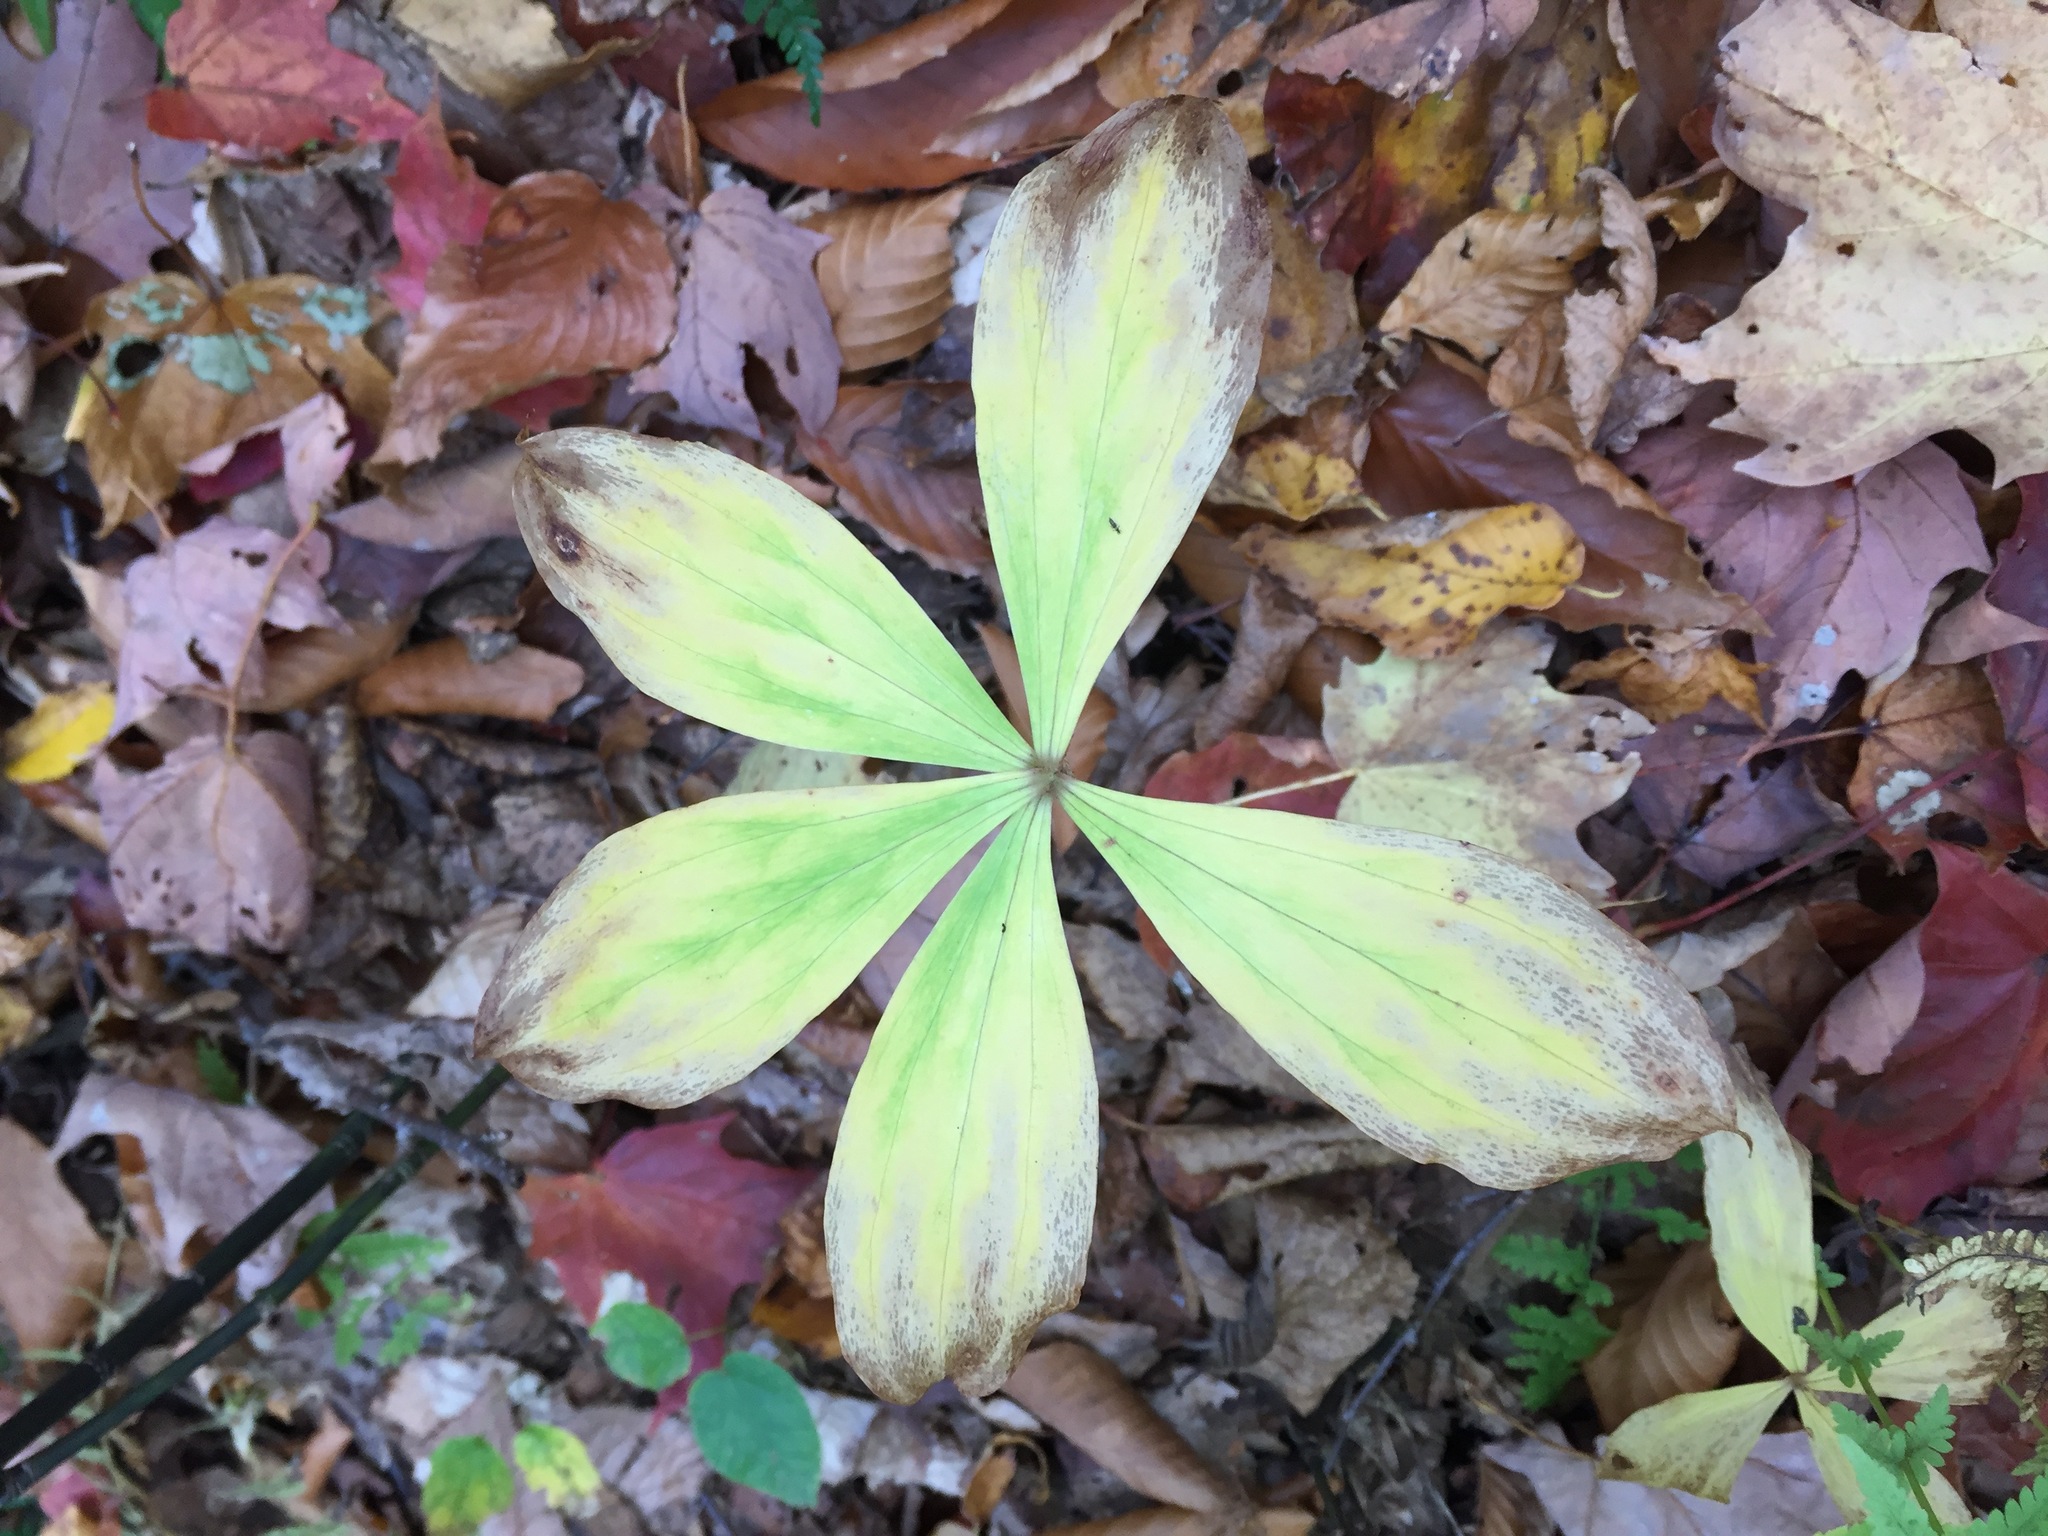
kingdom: Plantae
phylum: Tracheophyta
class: Liliopsida
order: Liliales
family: Liliaceae
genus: Medeola
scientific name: Medeola virginiana
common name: Indian cucumber-root
